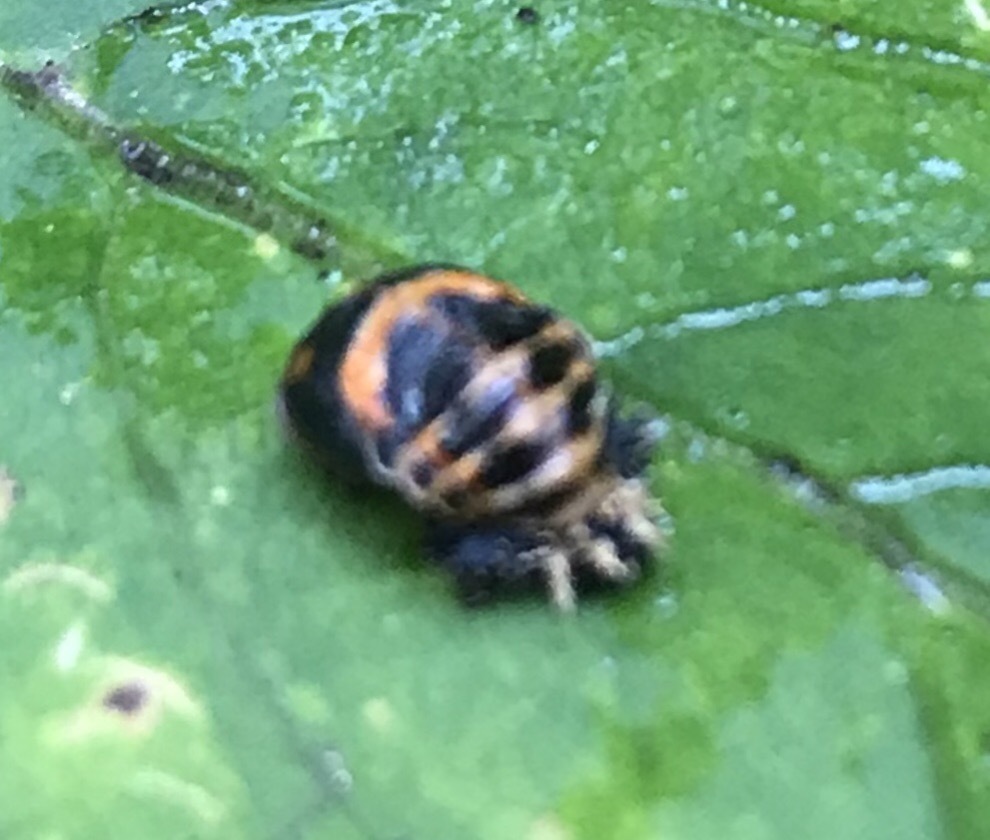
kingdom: Animalia
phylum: Arthropoda
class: Insecta
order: Coleoptera
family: Coccinellidae
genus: Harmonia
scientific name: Harmonia axyridis
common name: Harlequin ladybird
